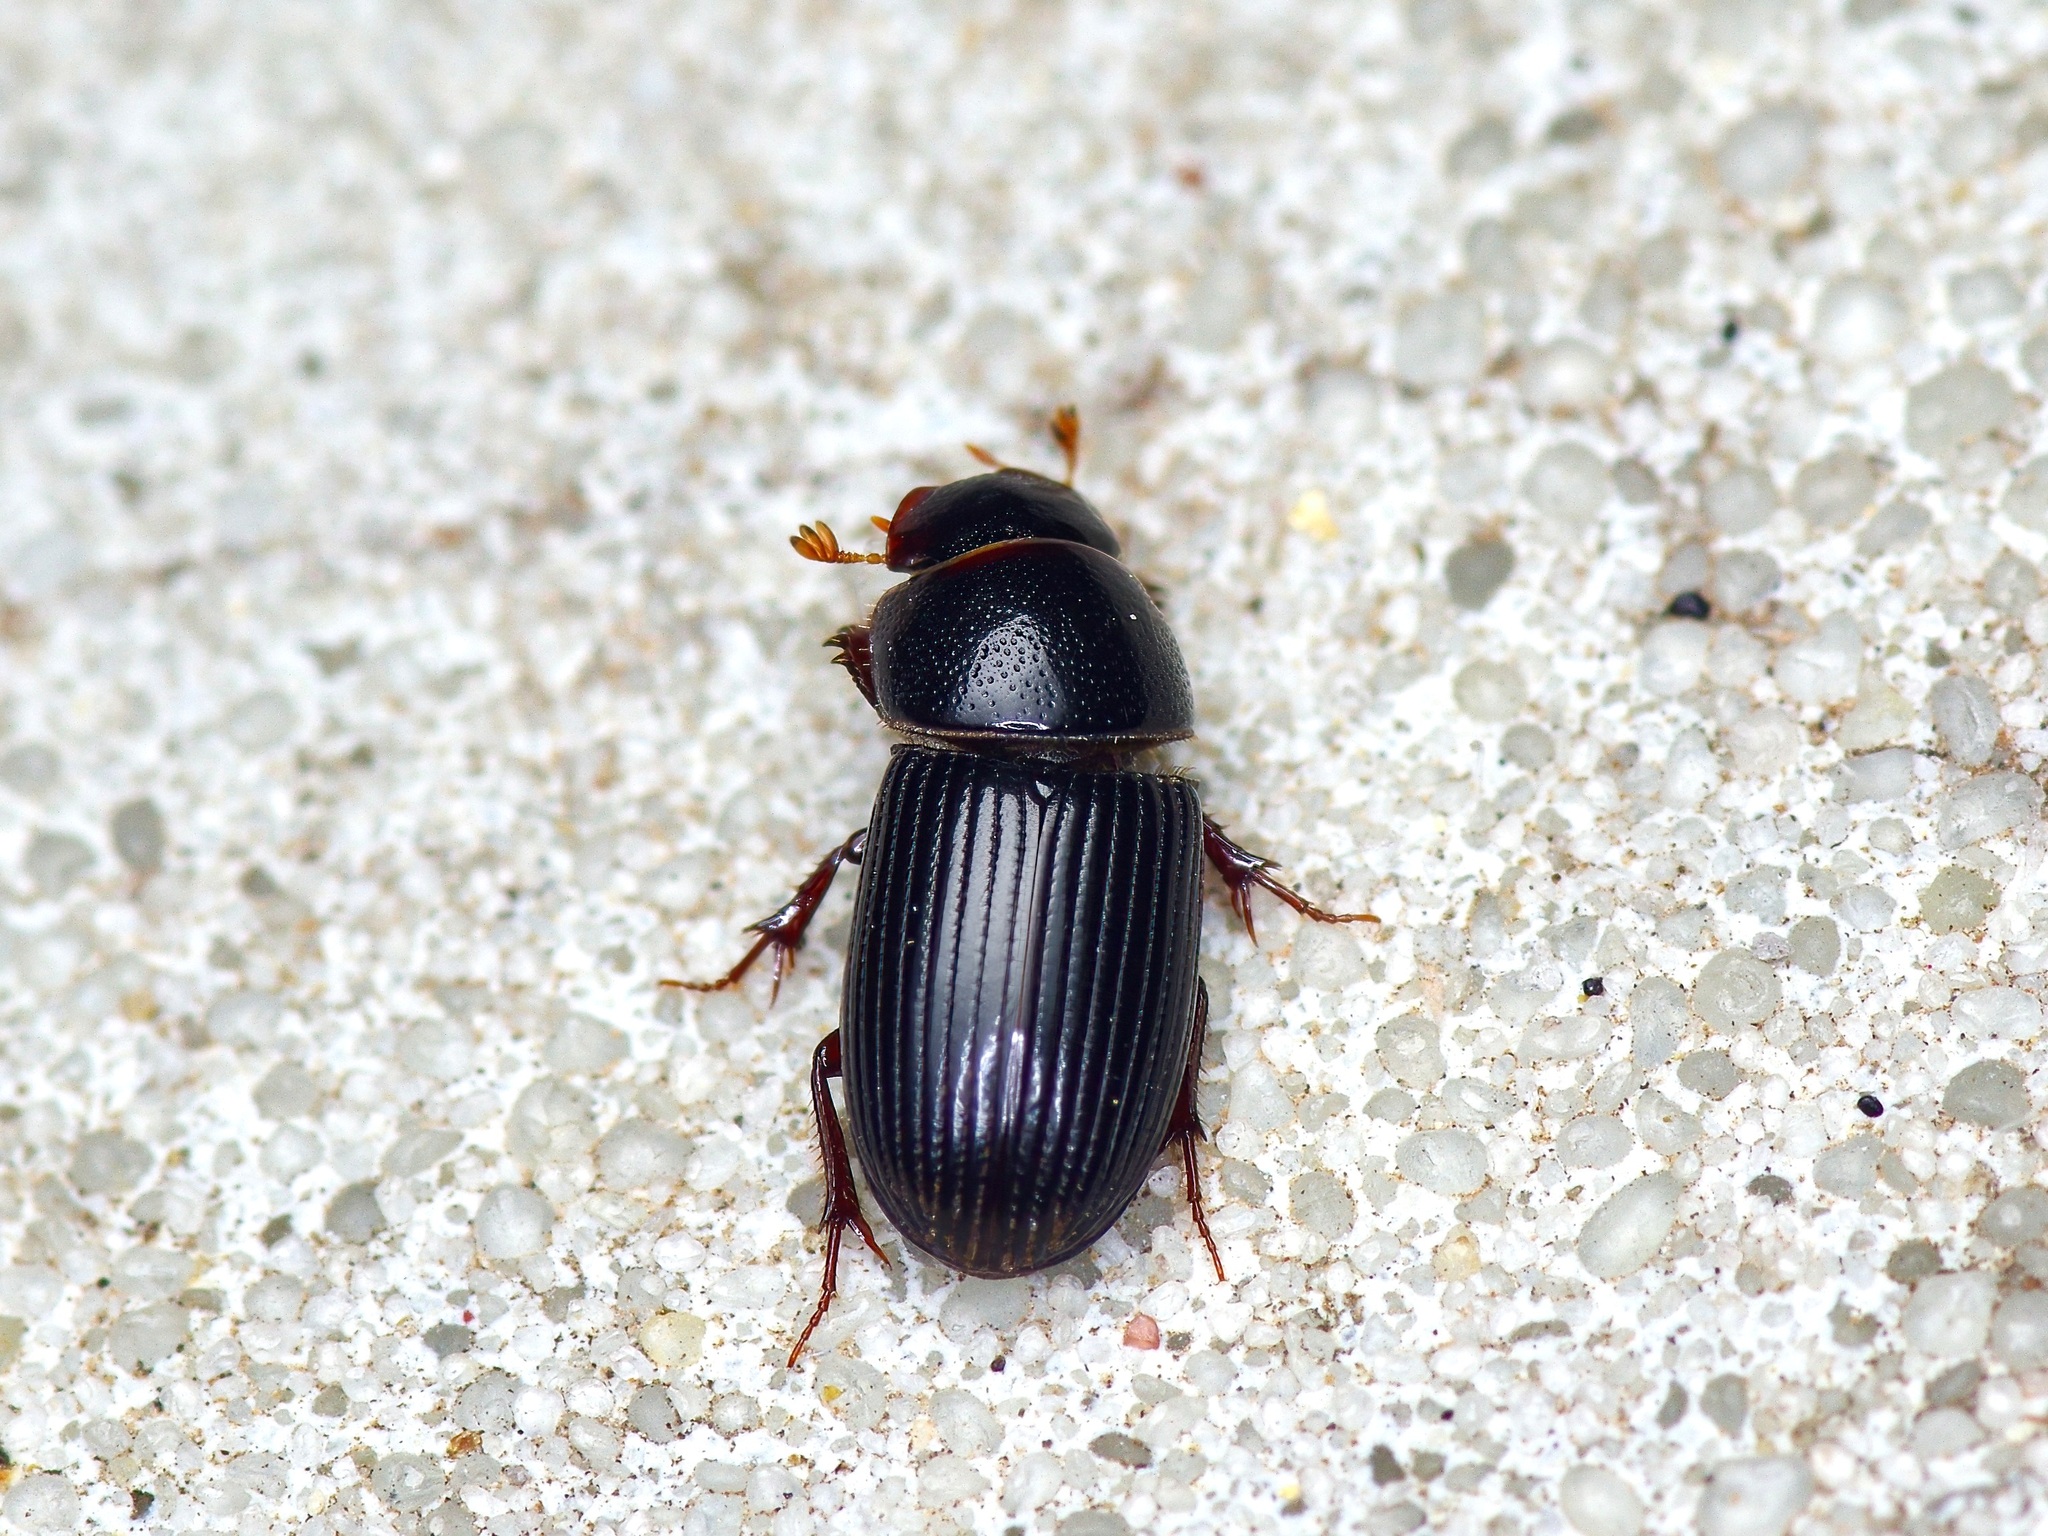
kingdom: Animalia
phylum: Arthropoda
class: Insecta
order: Coleoptera
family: Scarabaeidae
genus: Ataenius
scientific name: Ataenius platensis
